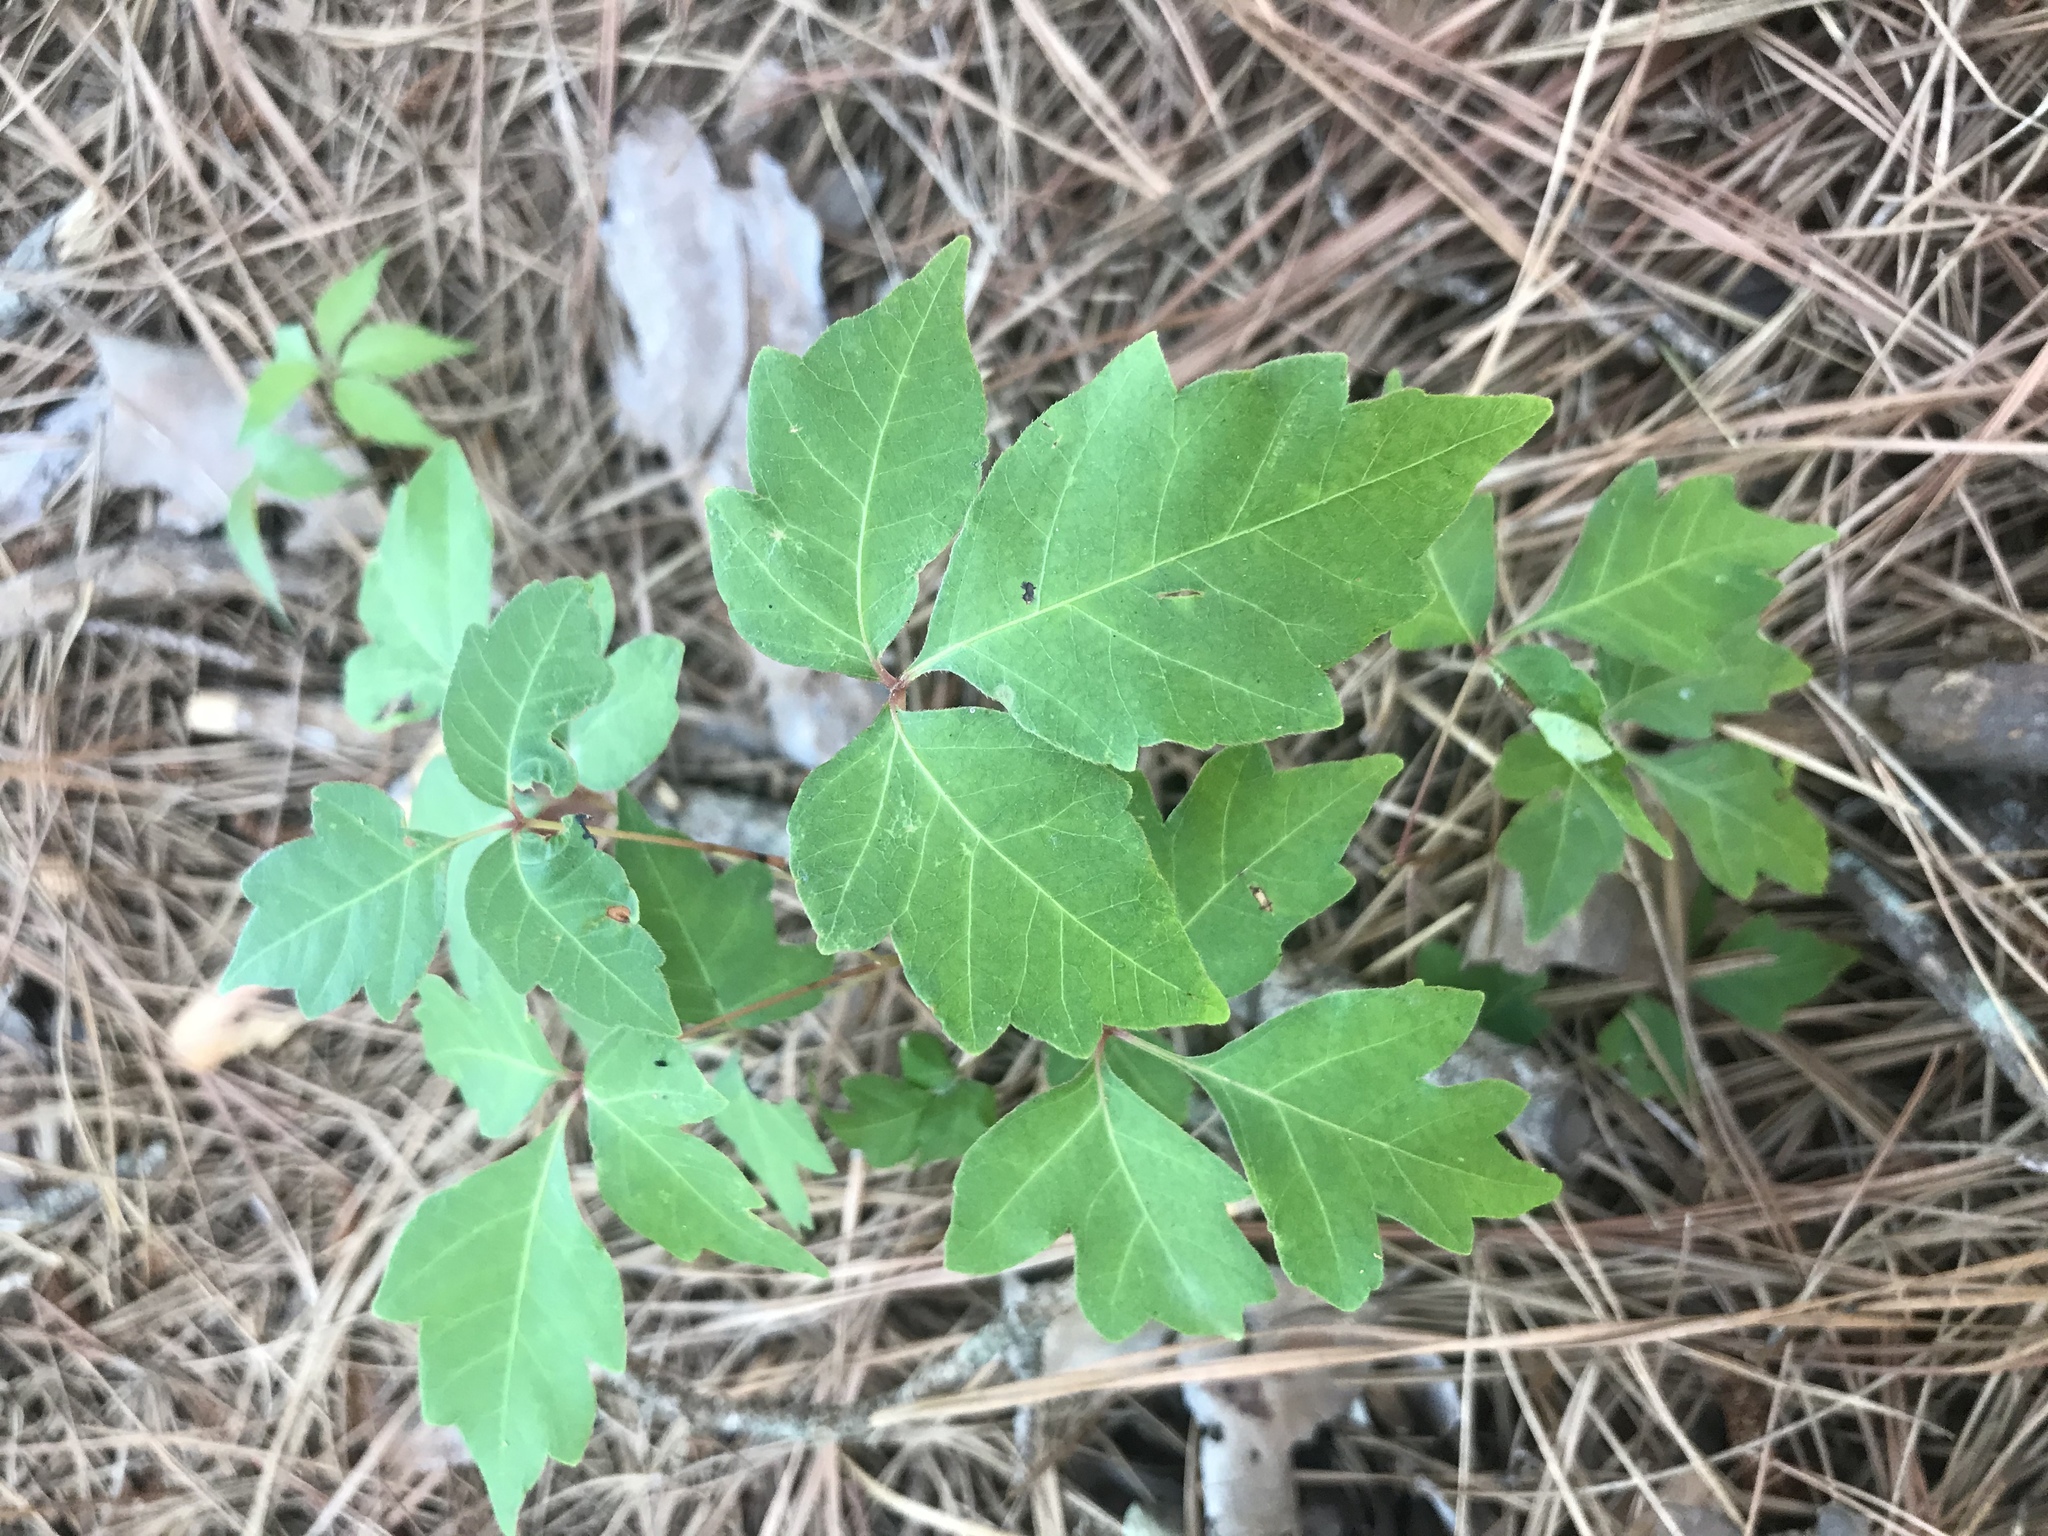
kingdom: Plantae
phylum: Tracheophyta
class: Magnoliopsida
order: Sapindales
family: Anacardiaceae
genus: Toxicodendron
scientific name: Toxicodendron pubescens
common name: Eastern poison-oak
